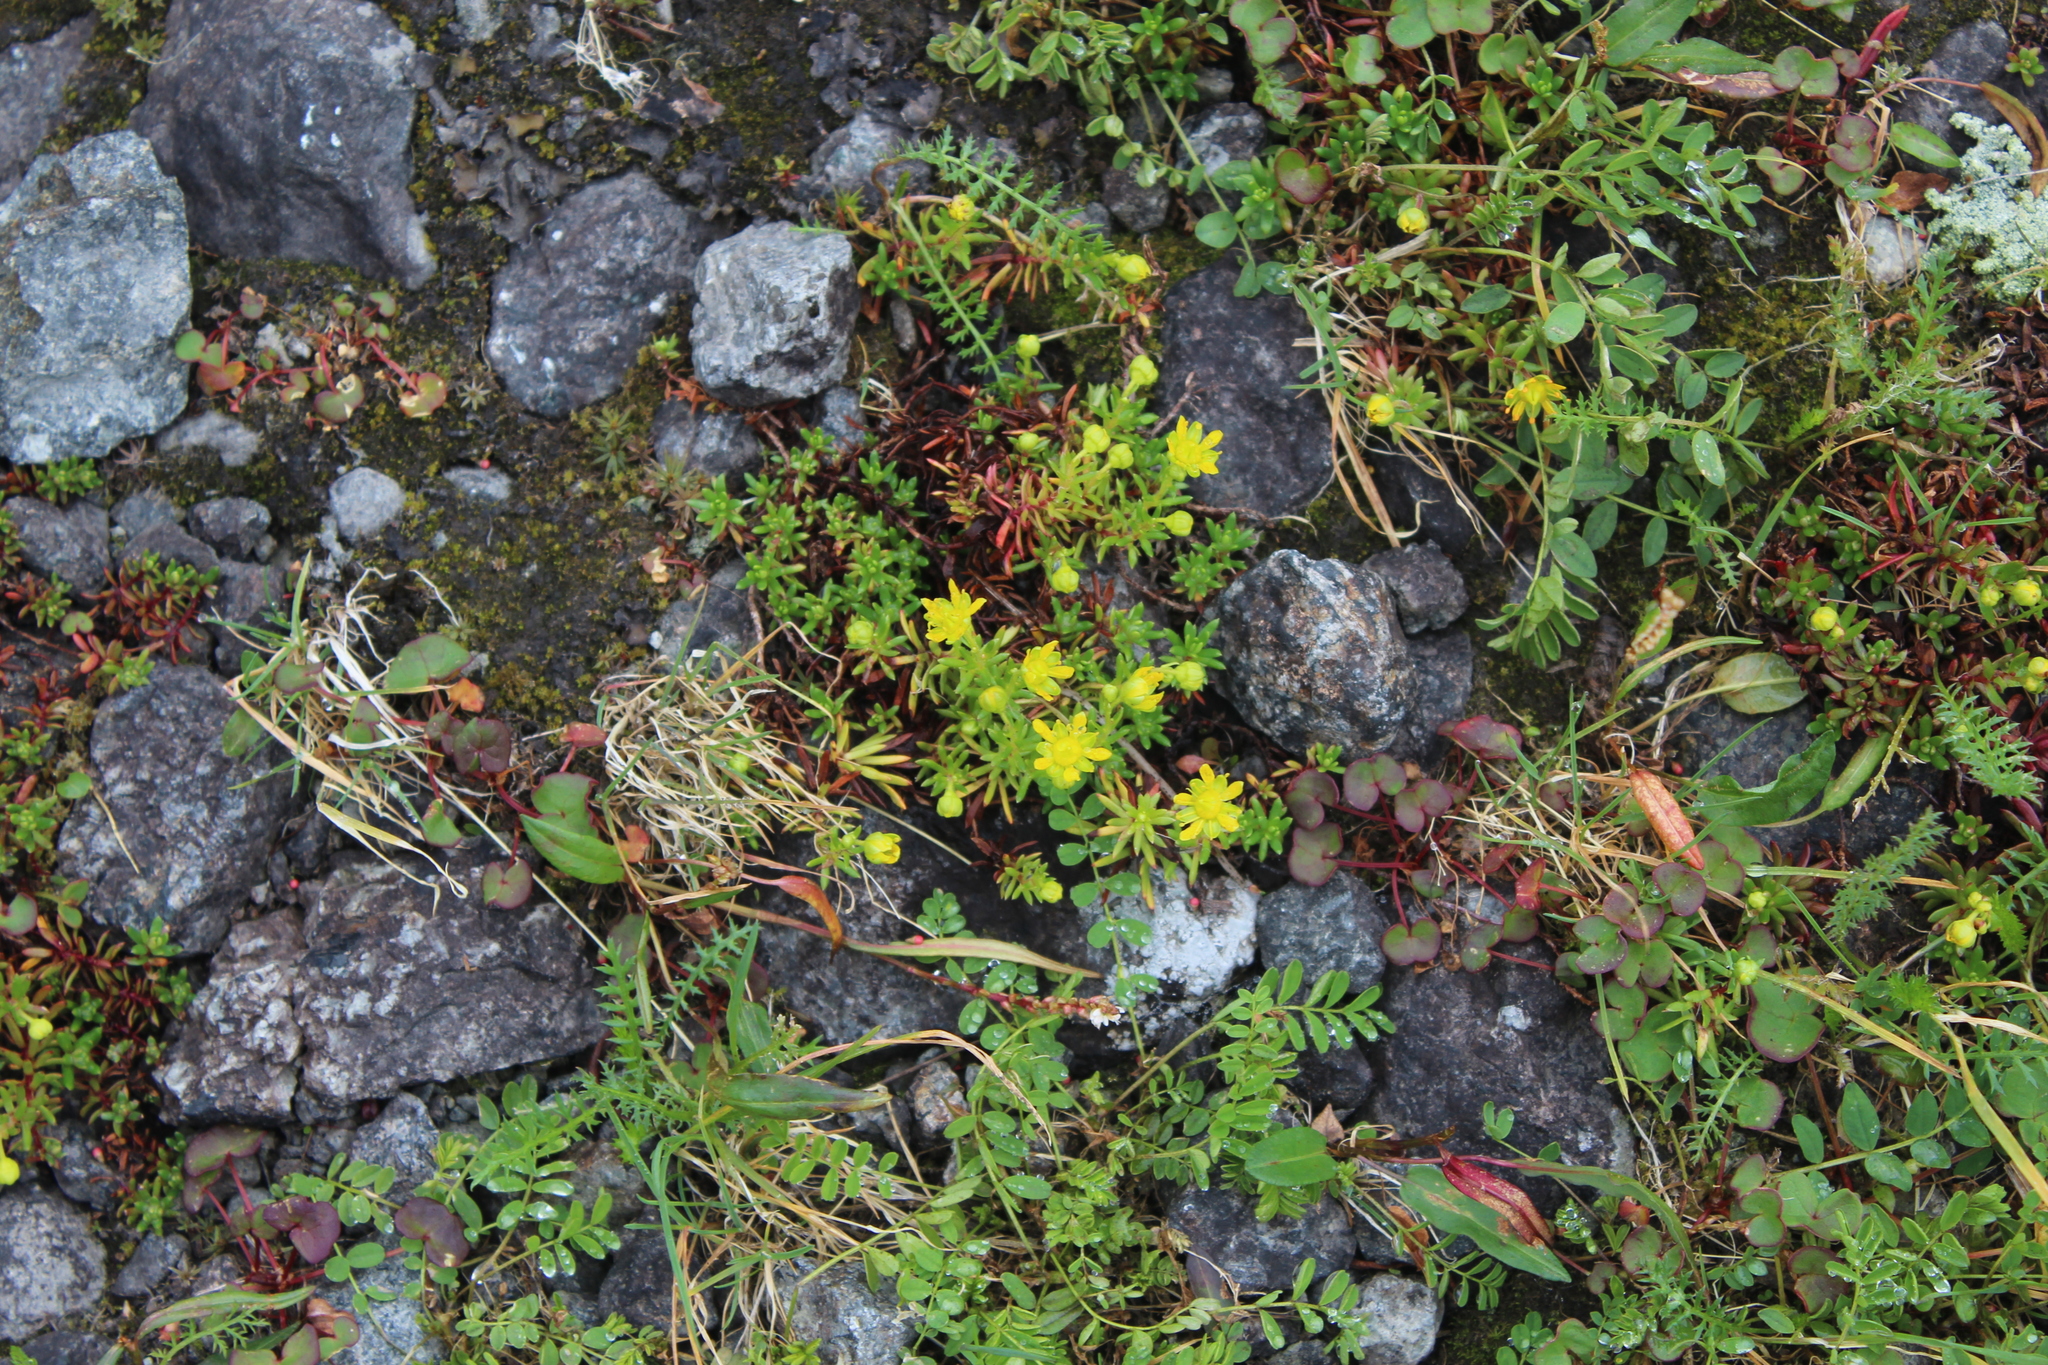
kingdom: Plantae
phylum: Tracheophyta
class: Magnoliopsida
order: Saxifragales
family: Saxifragaceae
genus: Saxifraga
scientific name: Saxifraga aizoides
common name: Yellow mountain saxifrage
